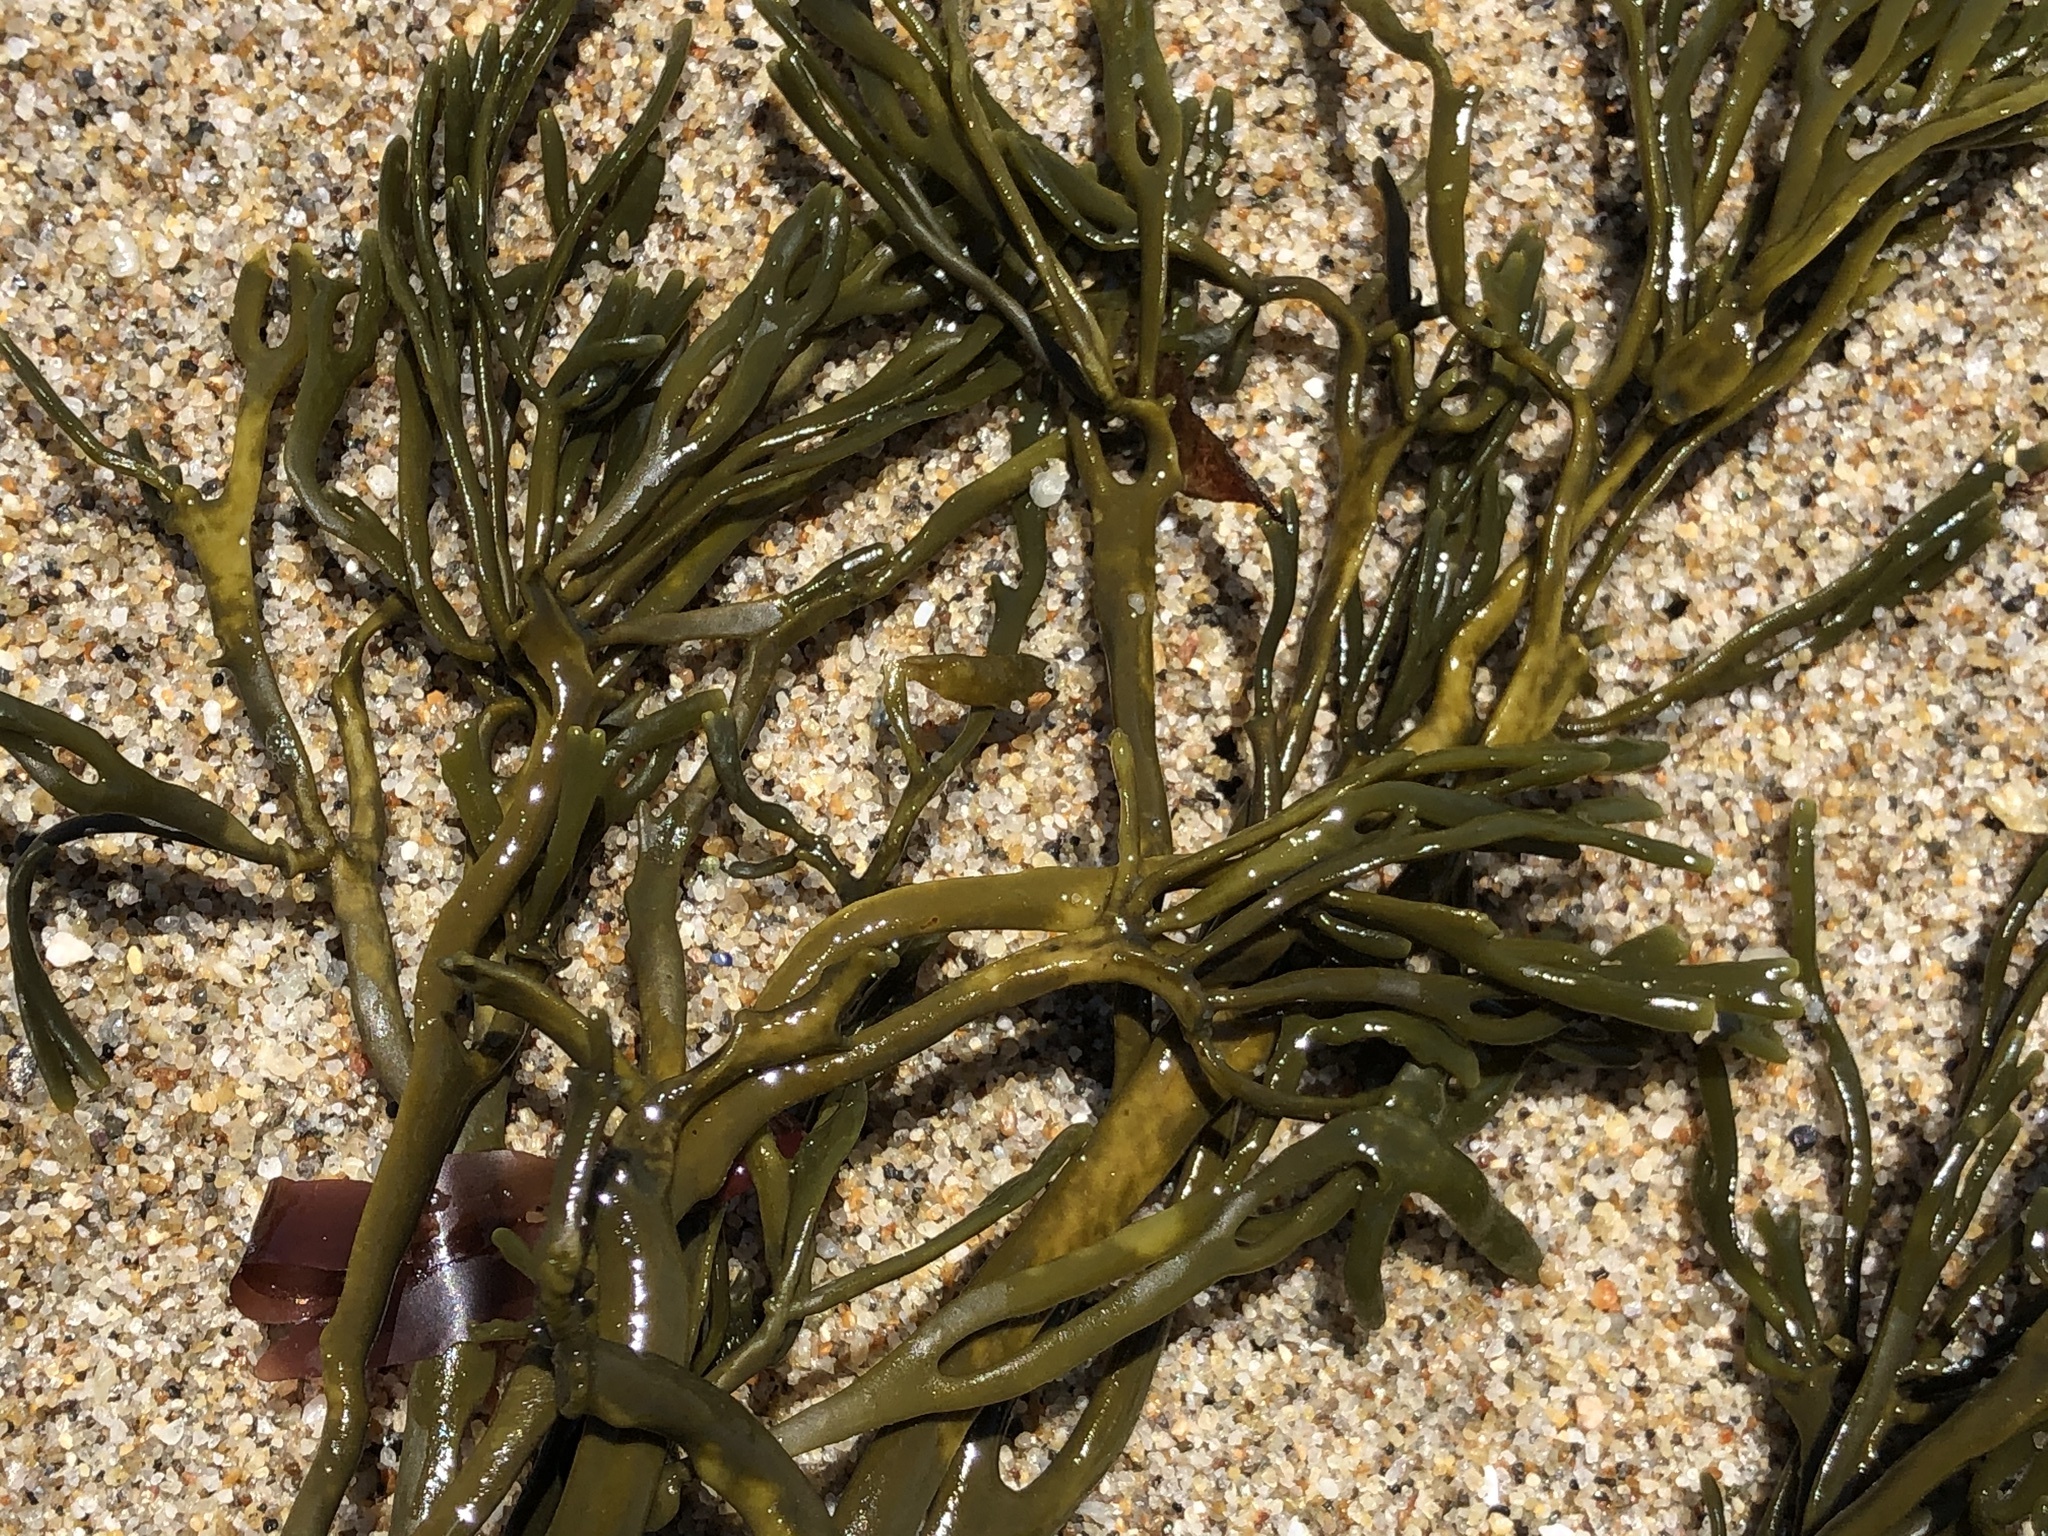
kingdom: Chromista
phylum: Ochrophyta
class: Phaeophyceae
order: Fucales
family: Fucaceae
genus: Silvetia
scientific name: Silvetia
